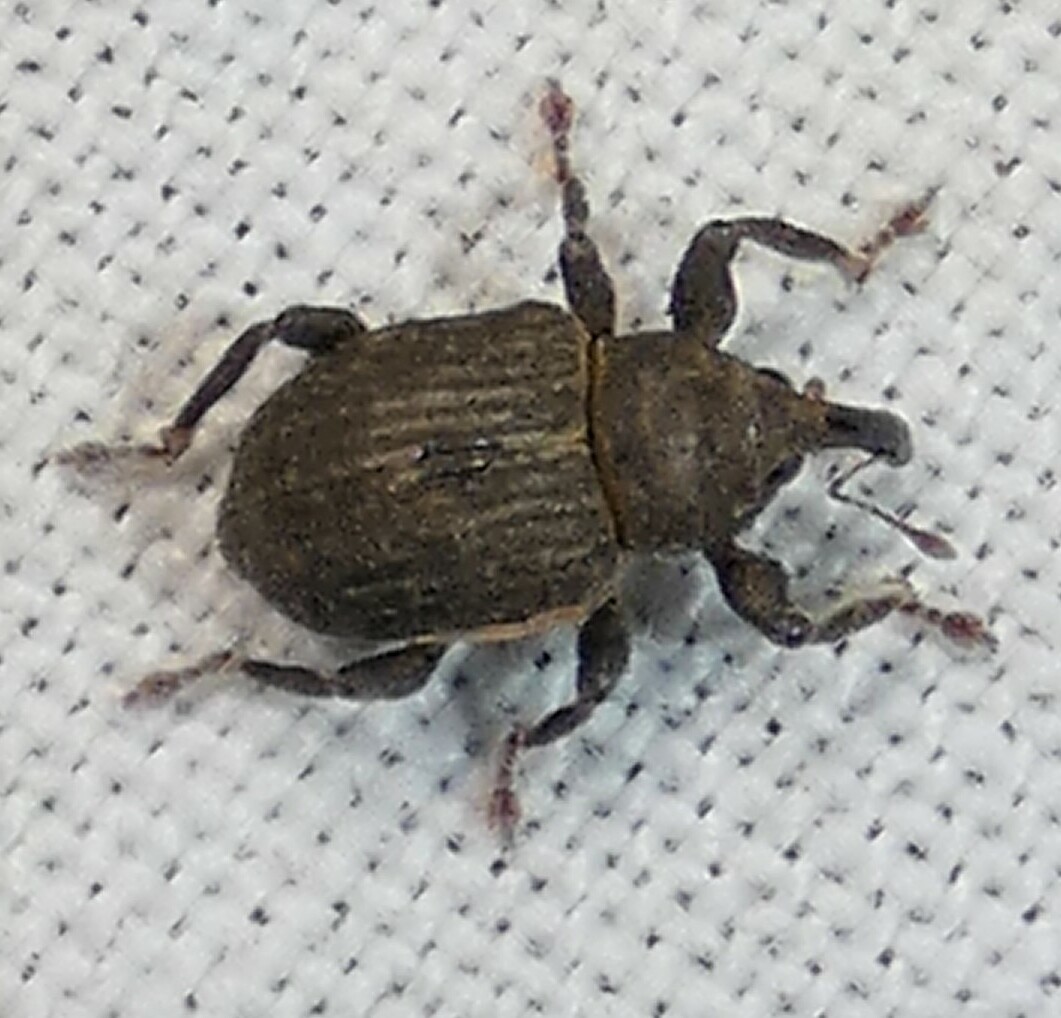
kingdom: Animalia
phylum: Arthropoda
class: Insecta
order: Coleoptera
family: Brachyceridae
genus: Neochetina
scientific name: Neochetina eichhorniae
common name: Weevil
